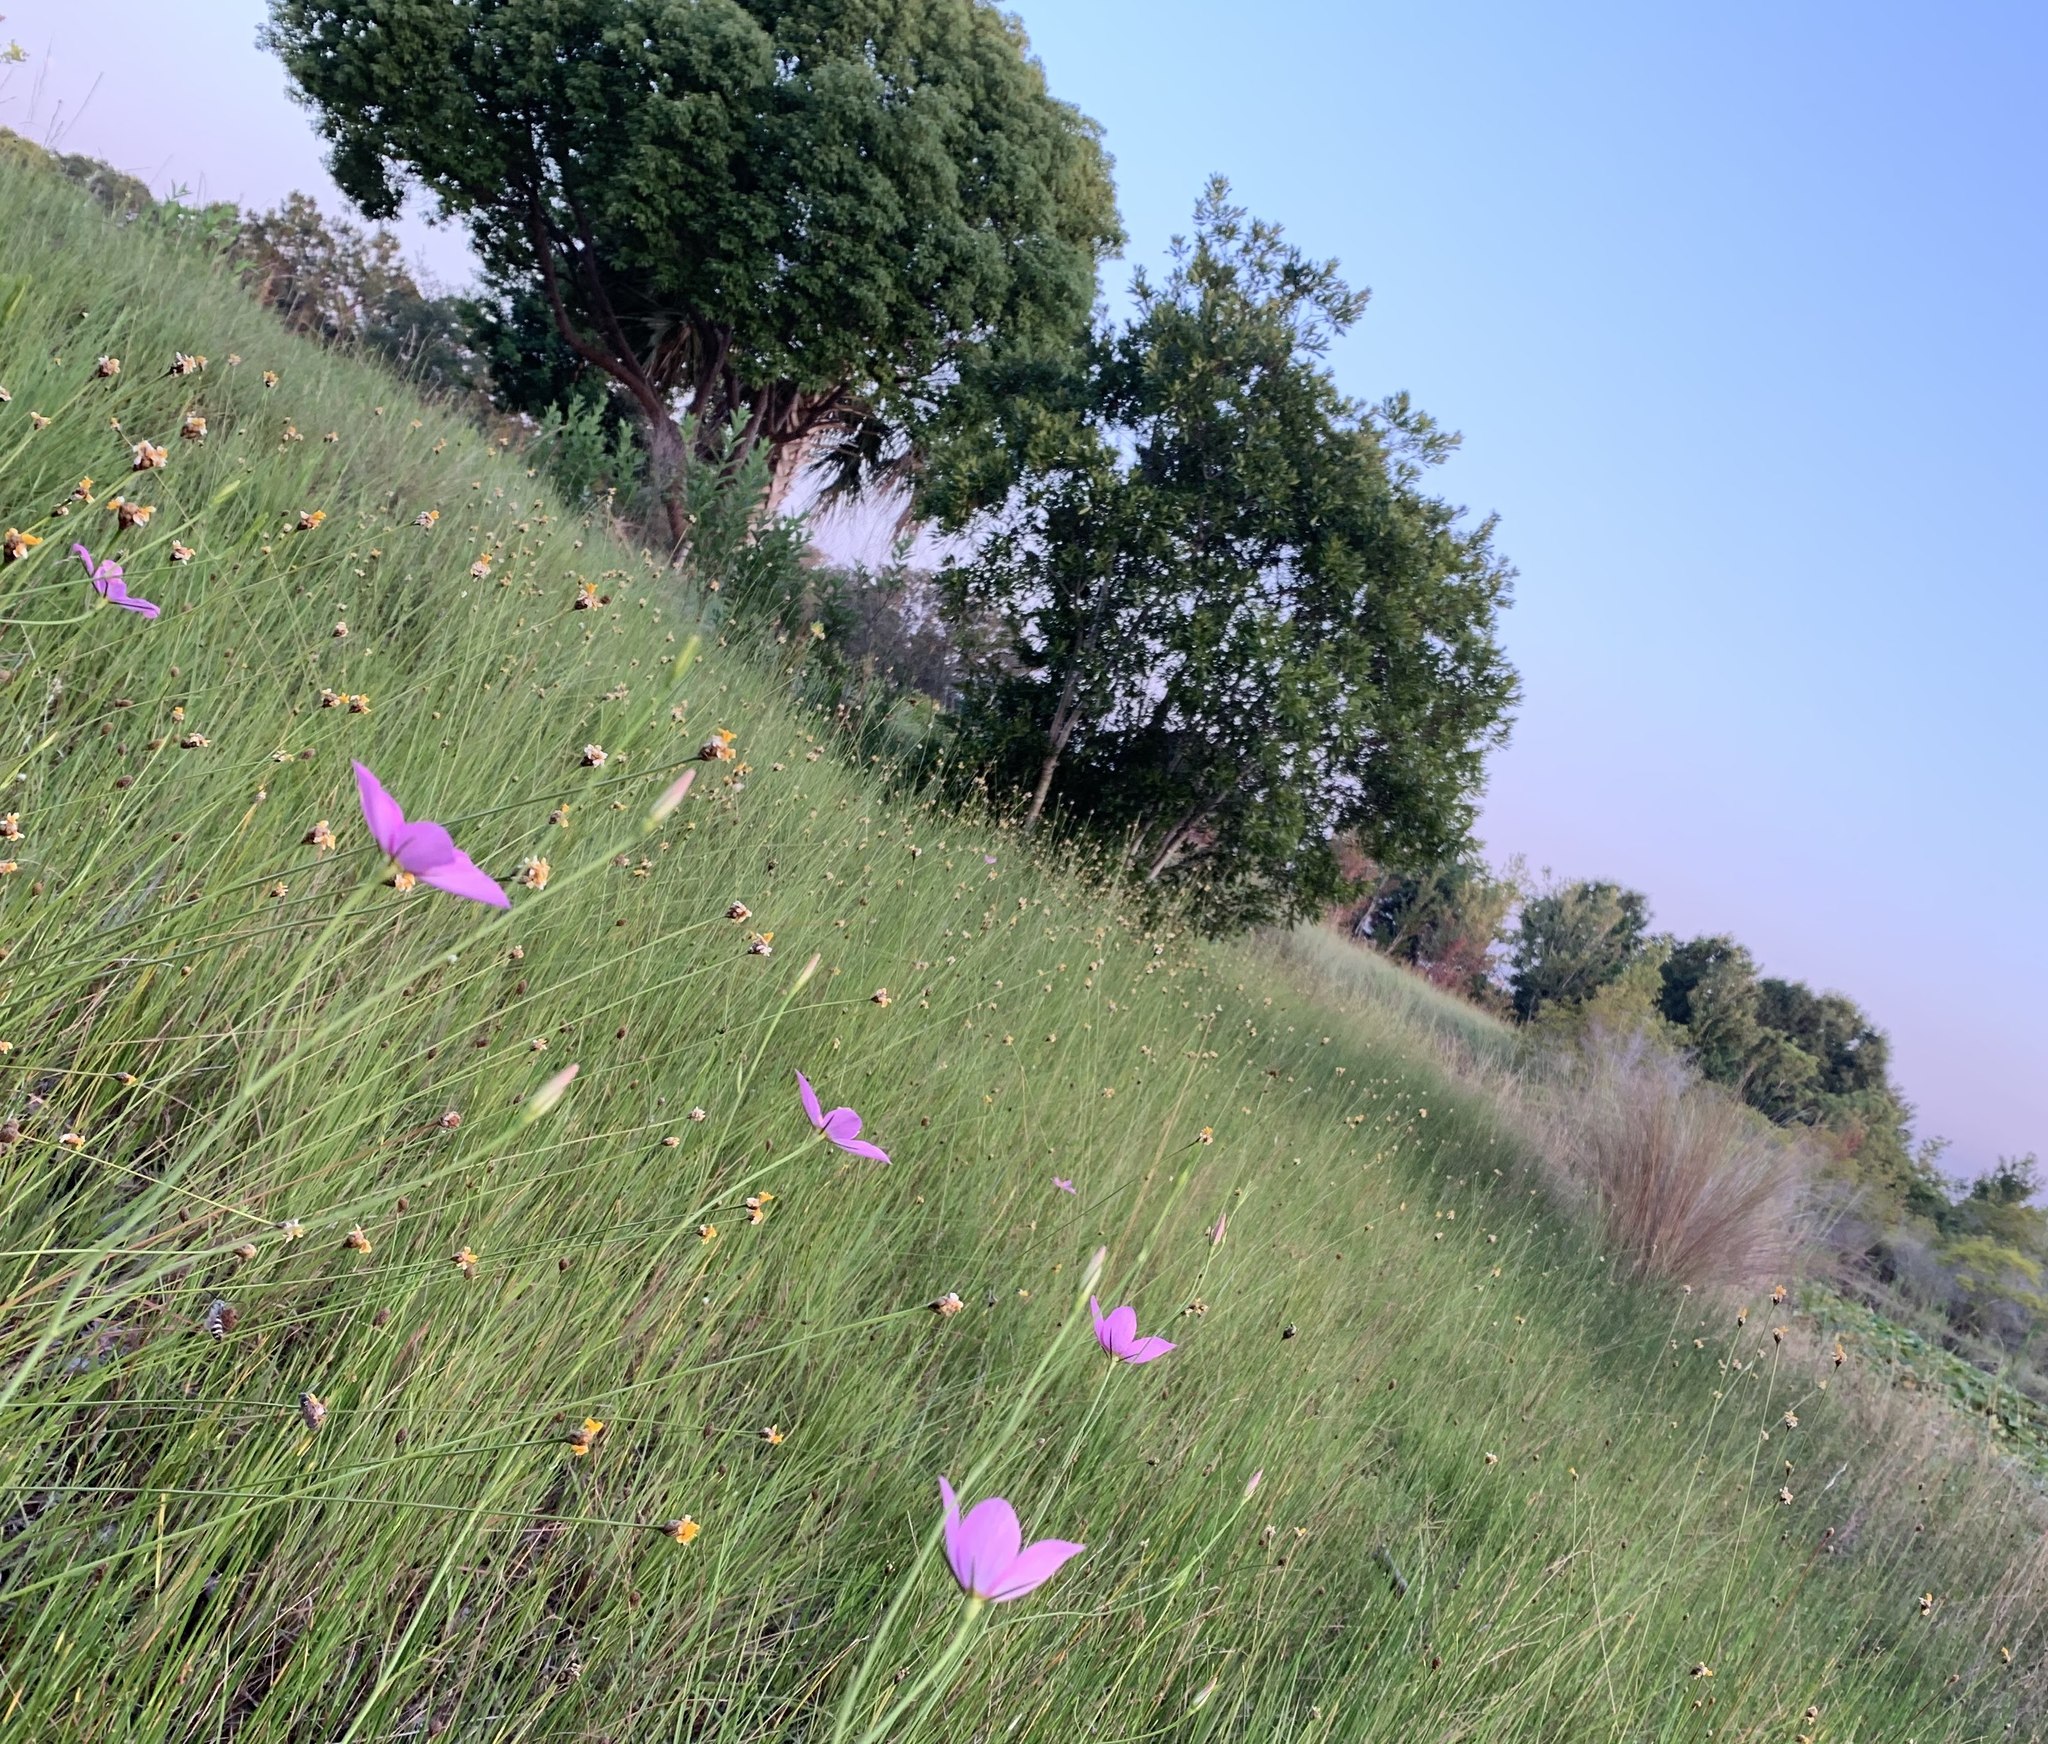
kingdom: Plantae
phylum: Tracheophyta
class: Magnoliopsida
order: Gentianales
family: Gentianaceae
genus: Sabatia
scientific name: Sabatia grandiflora
